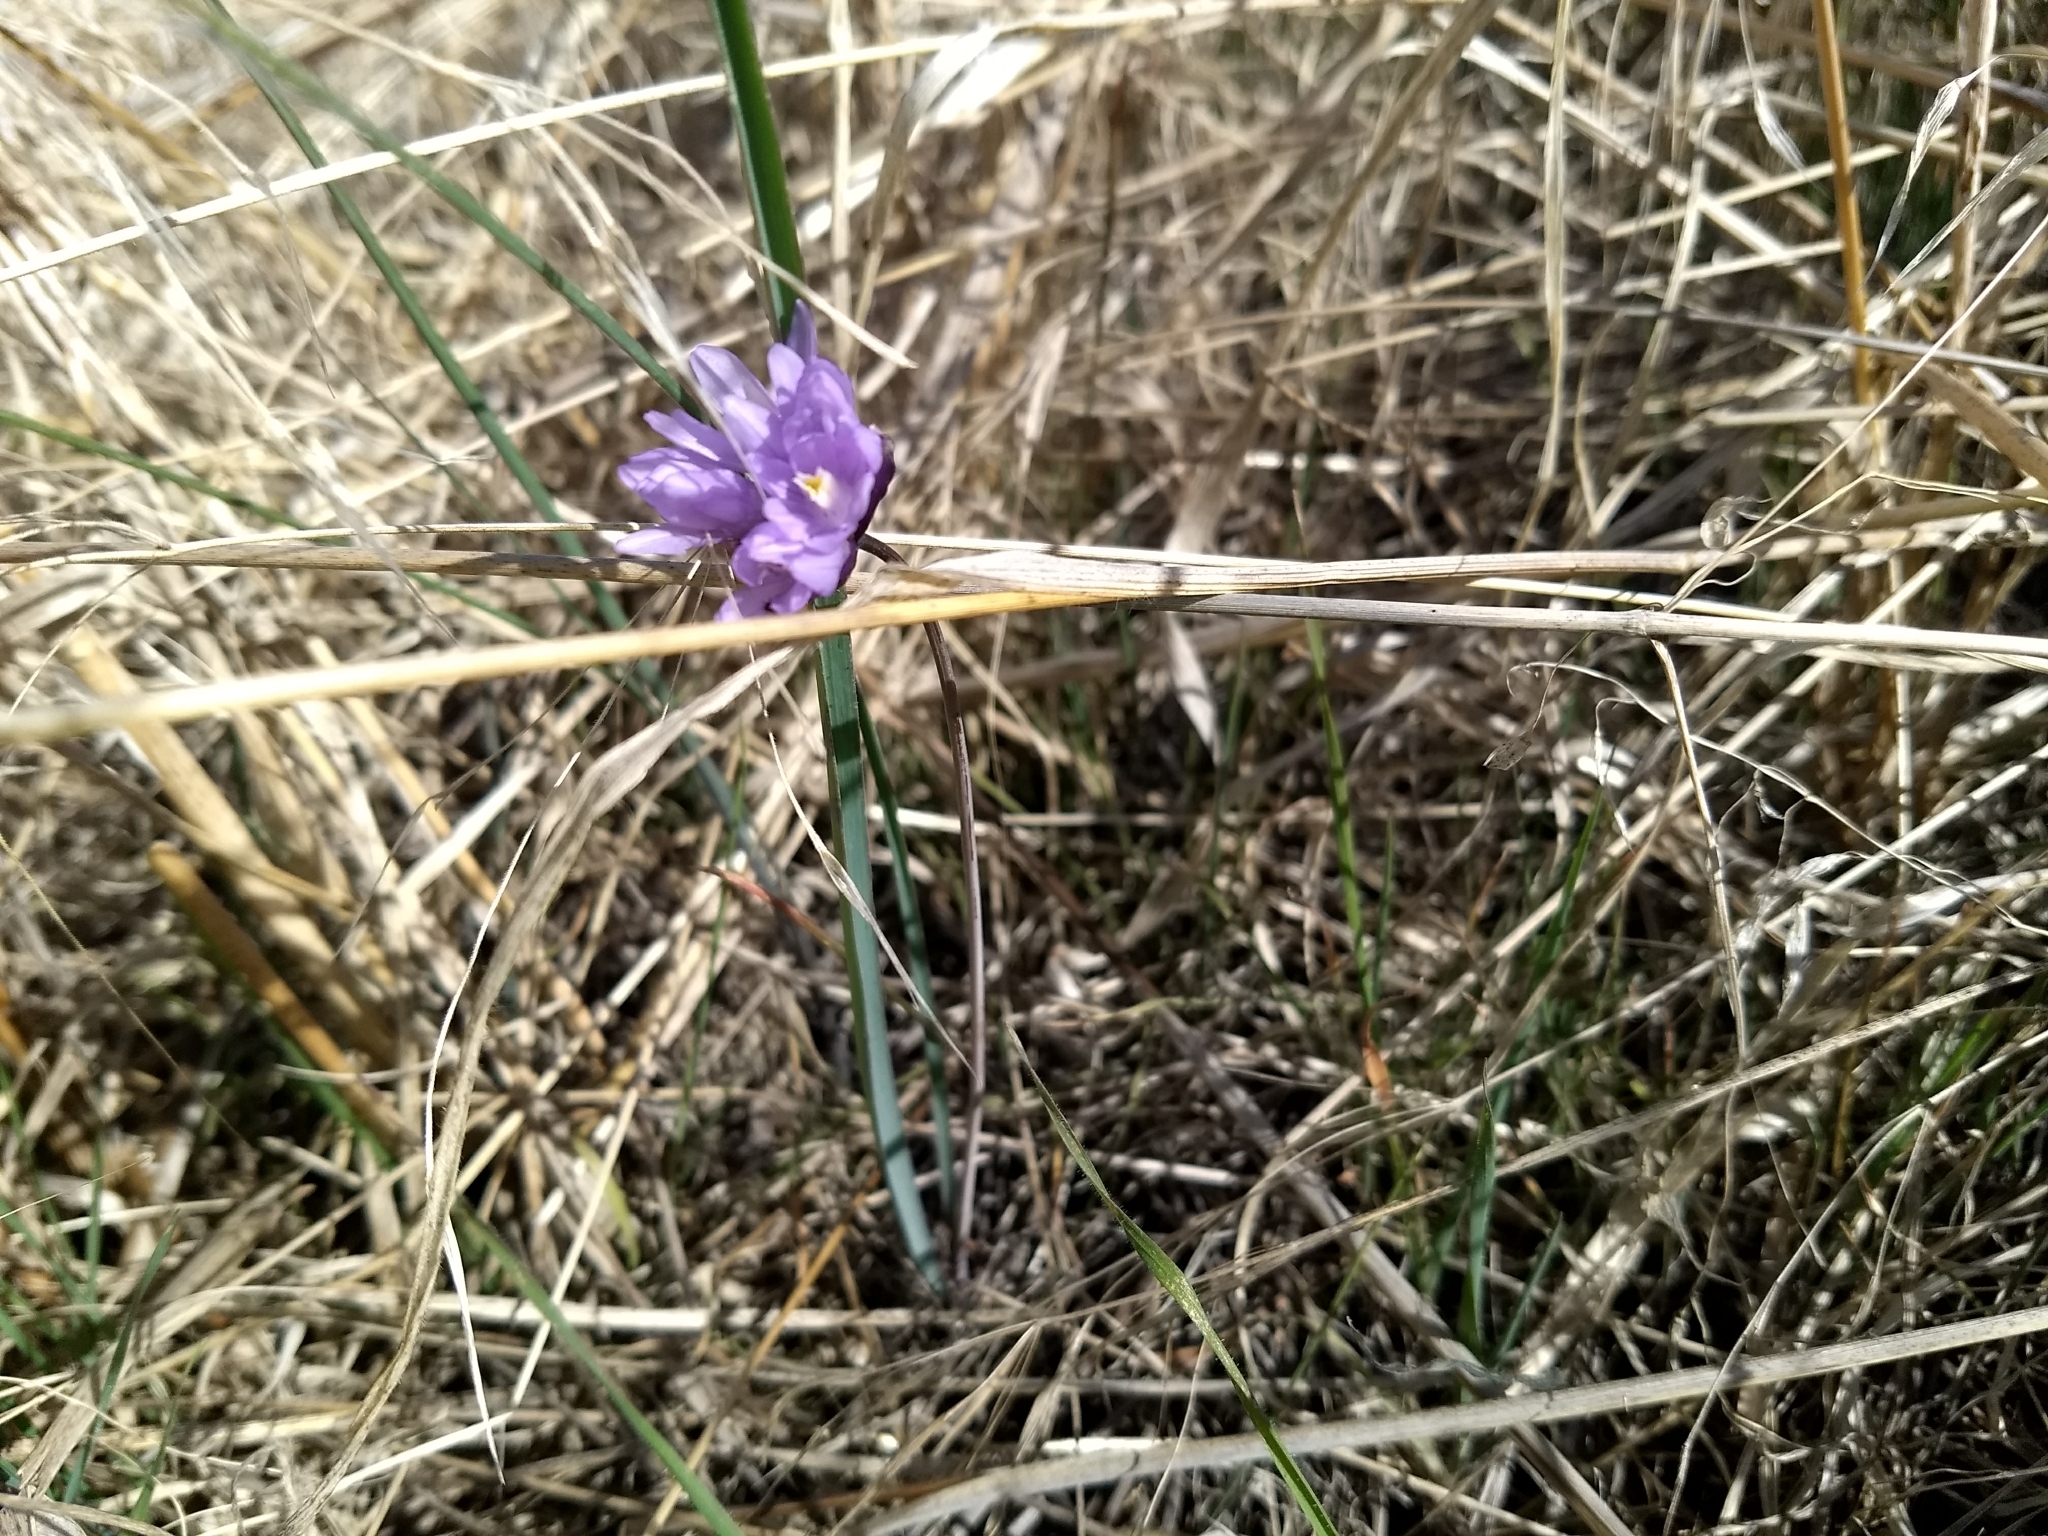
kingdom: Plantae
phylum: Tracheophyta
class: Liliopsida
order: Asparagales
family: Asparagaceae
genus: Dipterostemon
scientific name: Dipterostemon capitatus
